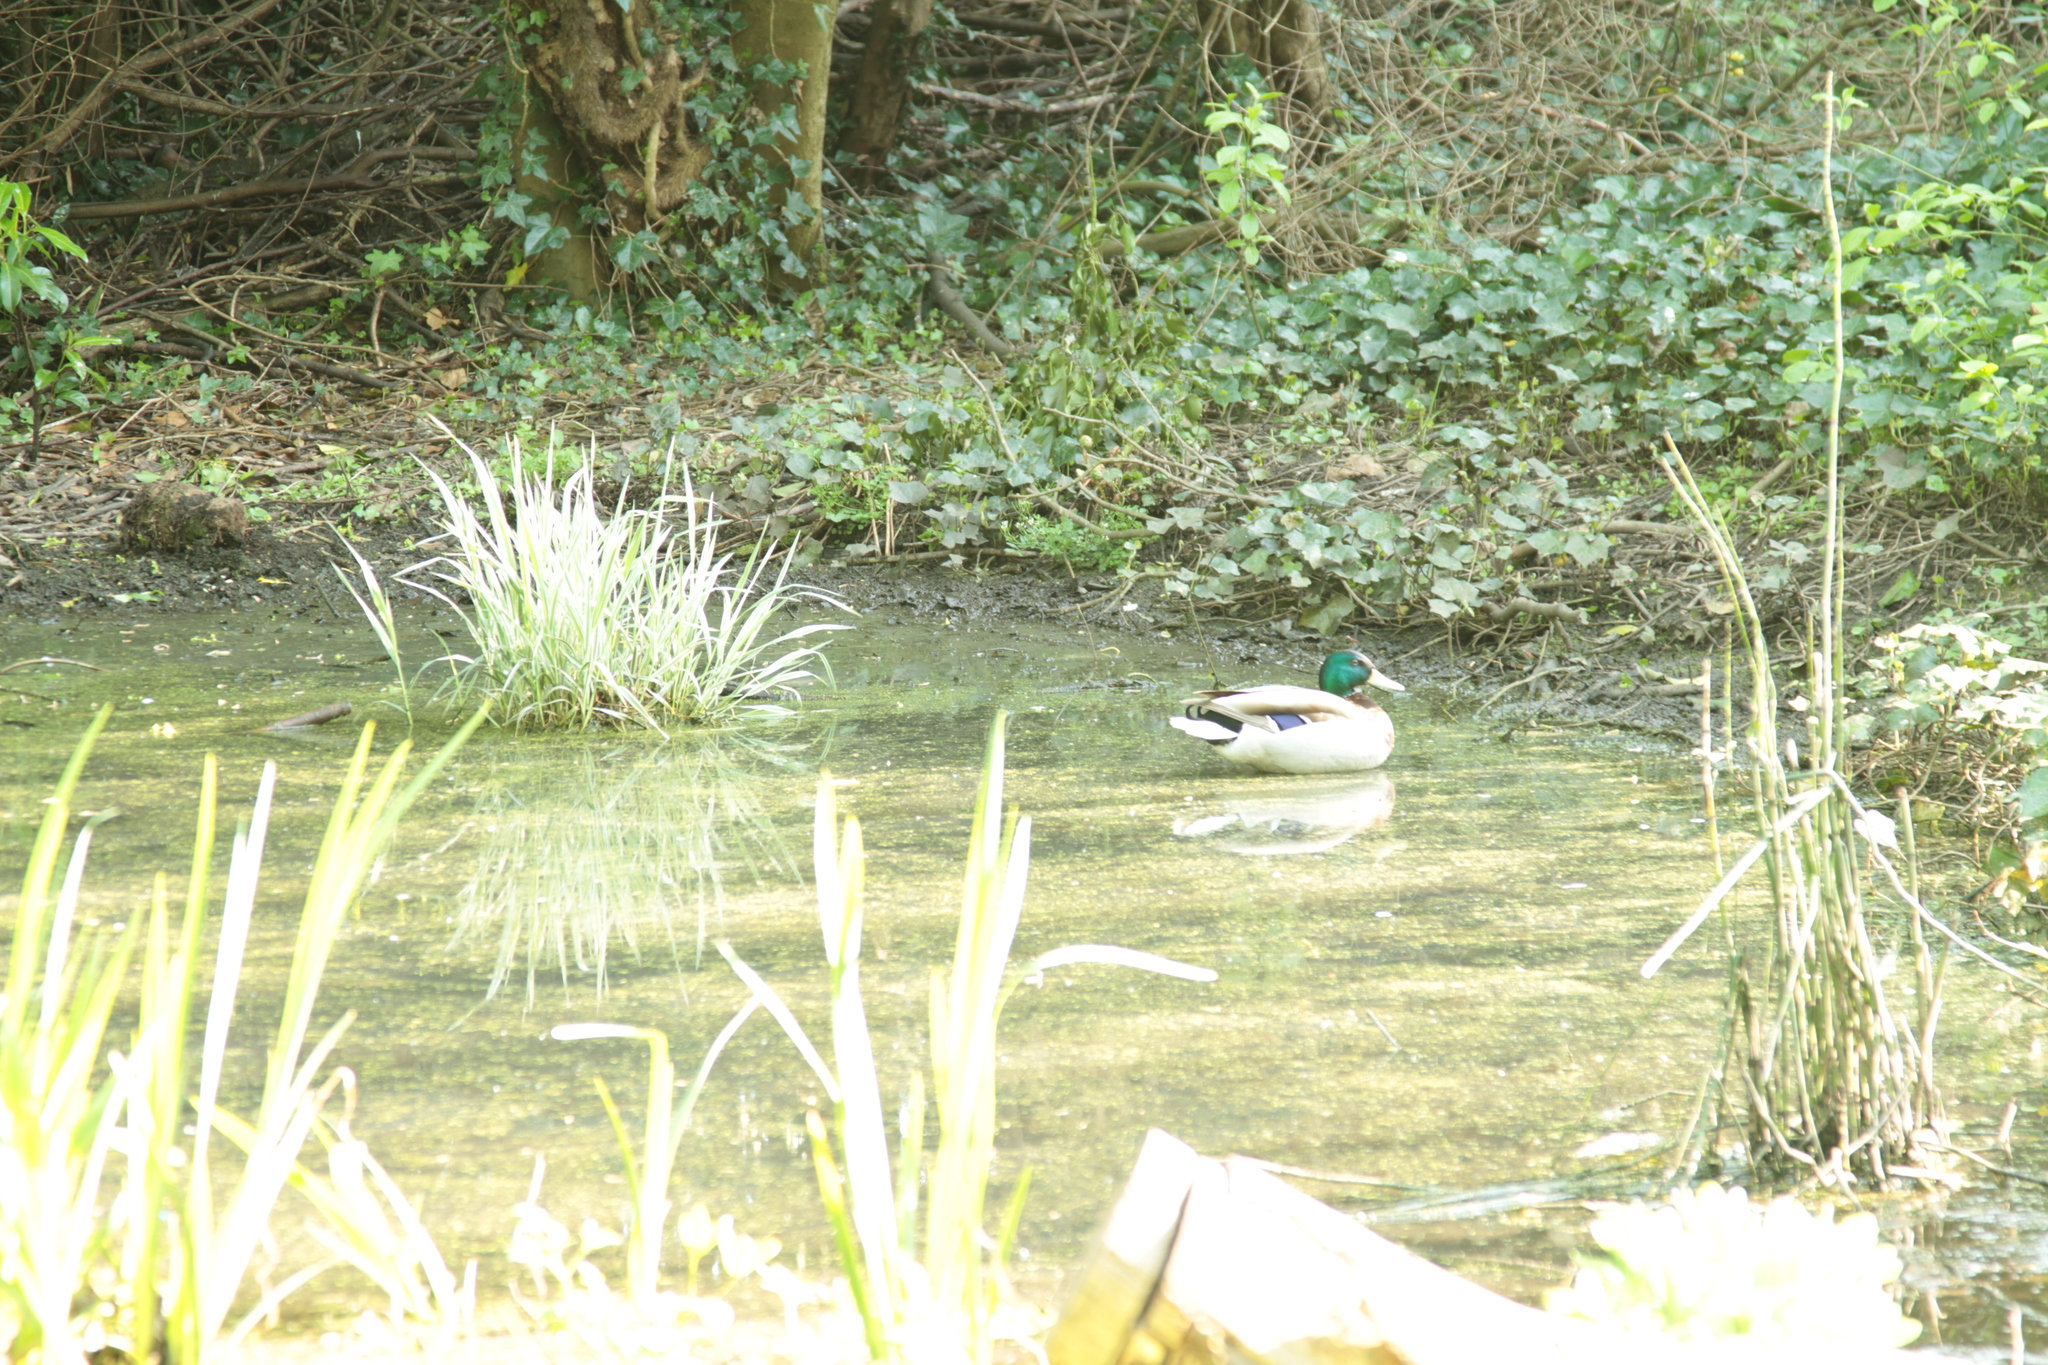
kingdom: Animalia
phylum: Chordata
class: Aves
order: Anseriformes
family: Anatidae
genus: Anas
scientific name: Anas platyrhynchos
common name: Mallard
